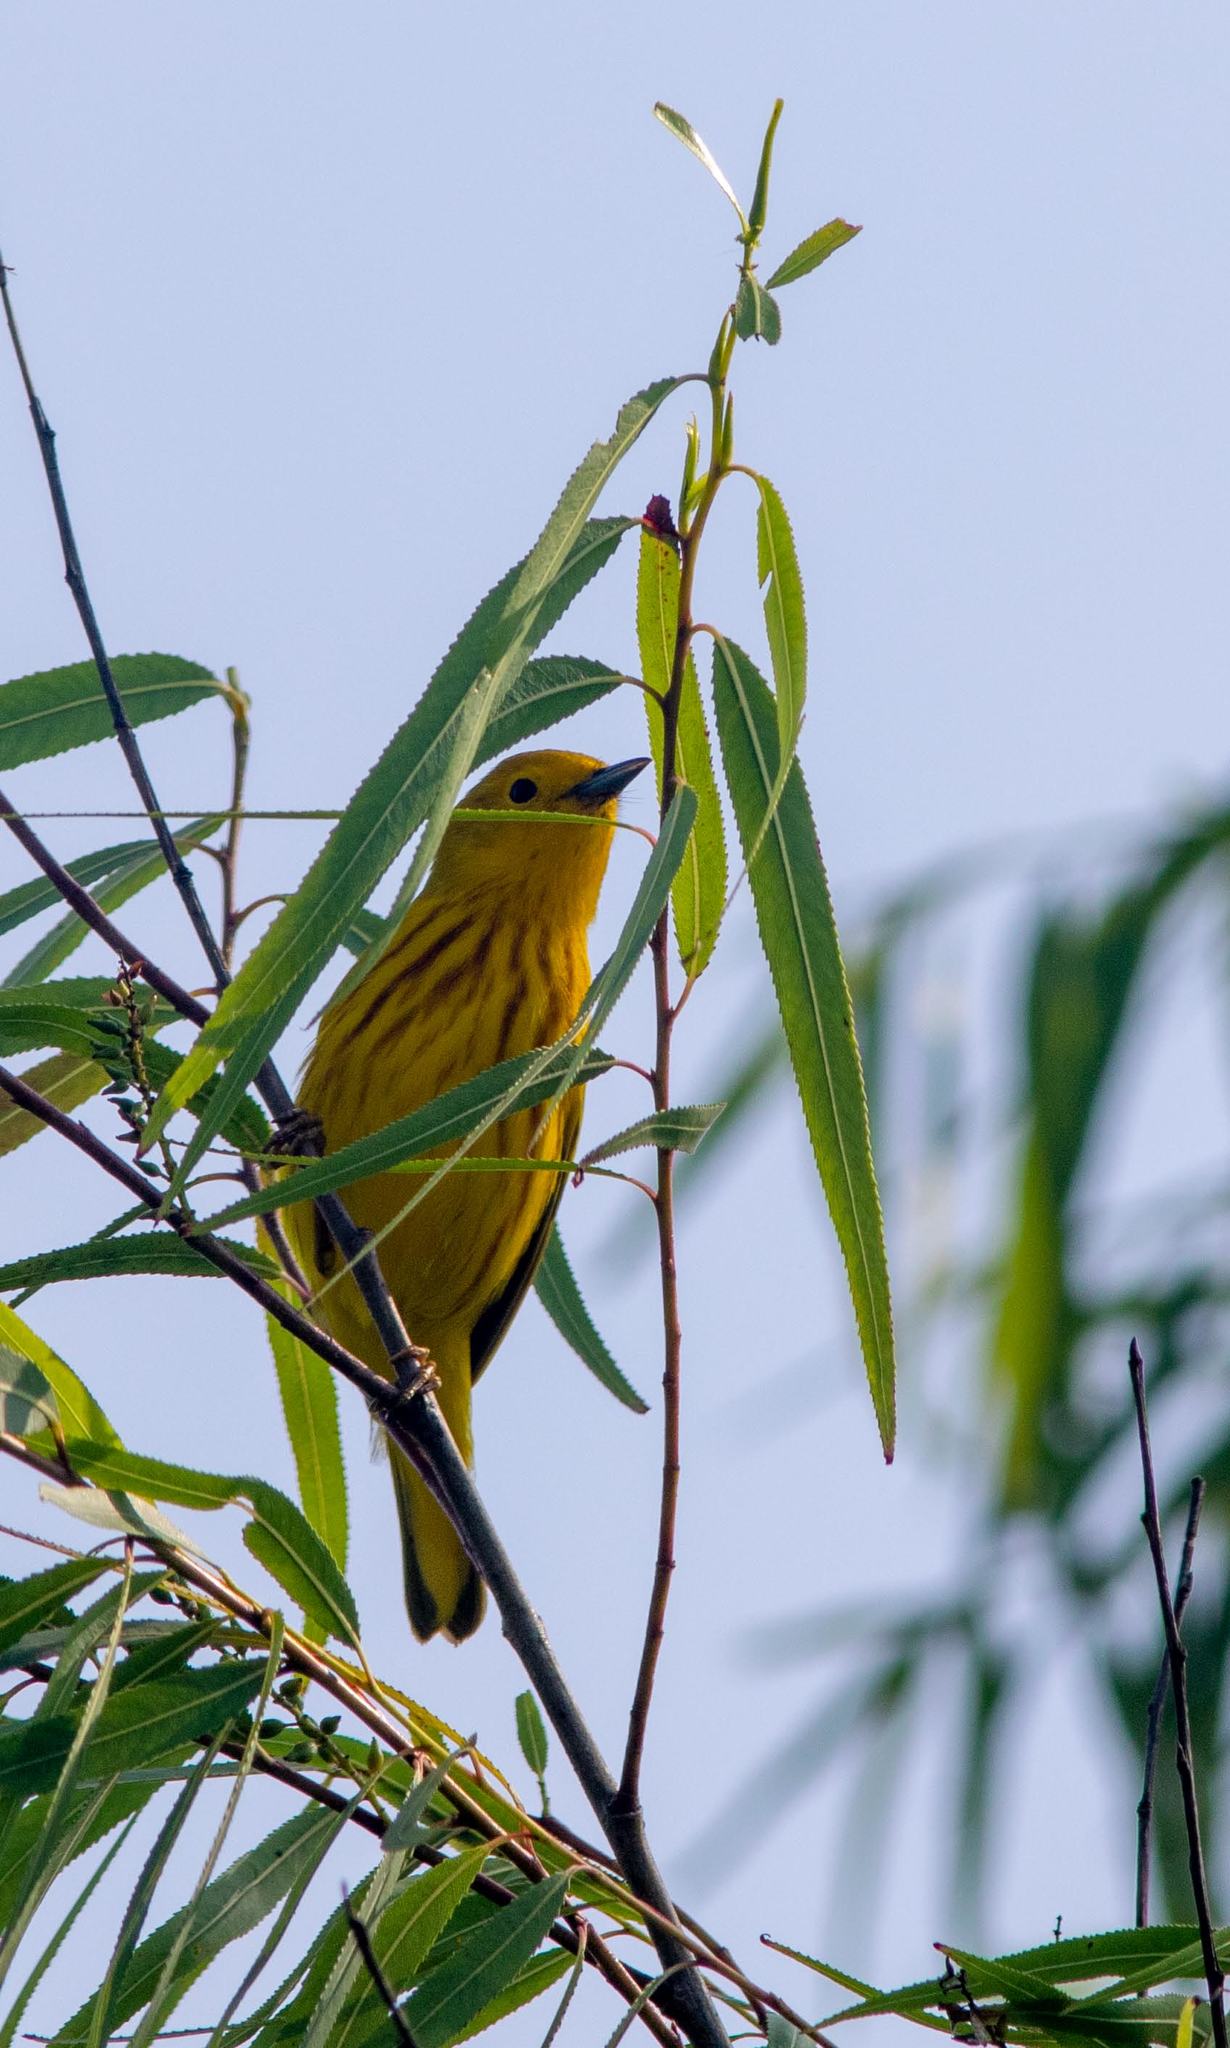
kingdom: Animalia
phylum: Chordata
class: Aves
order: Passeriformes
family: Parulidae
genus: Setophaga
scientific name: Setophaga petechia
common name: Yellow warbler
